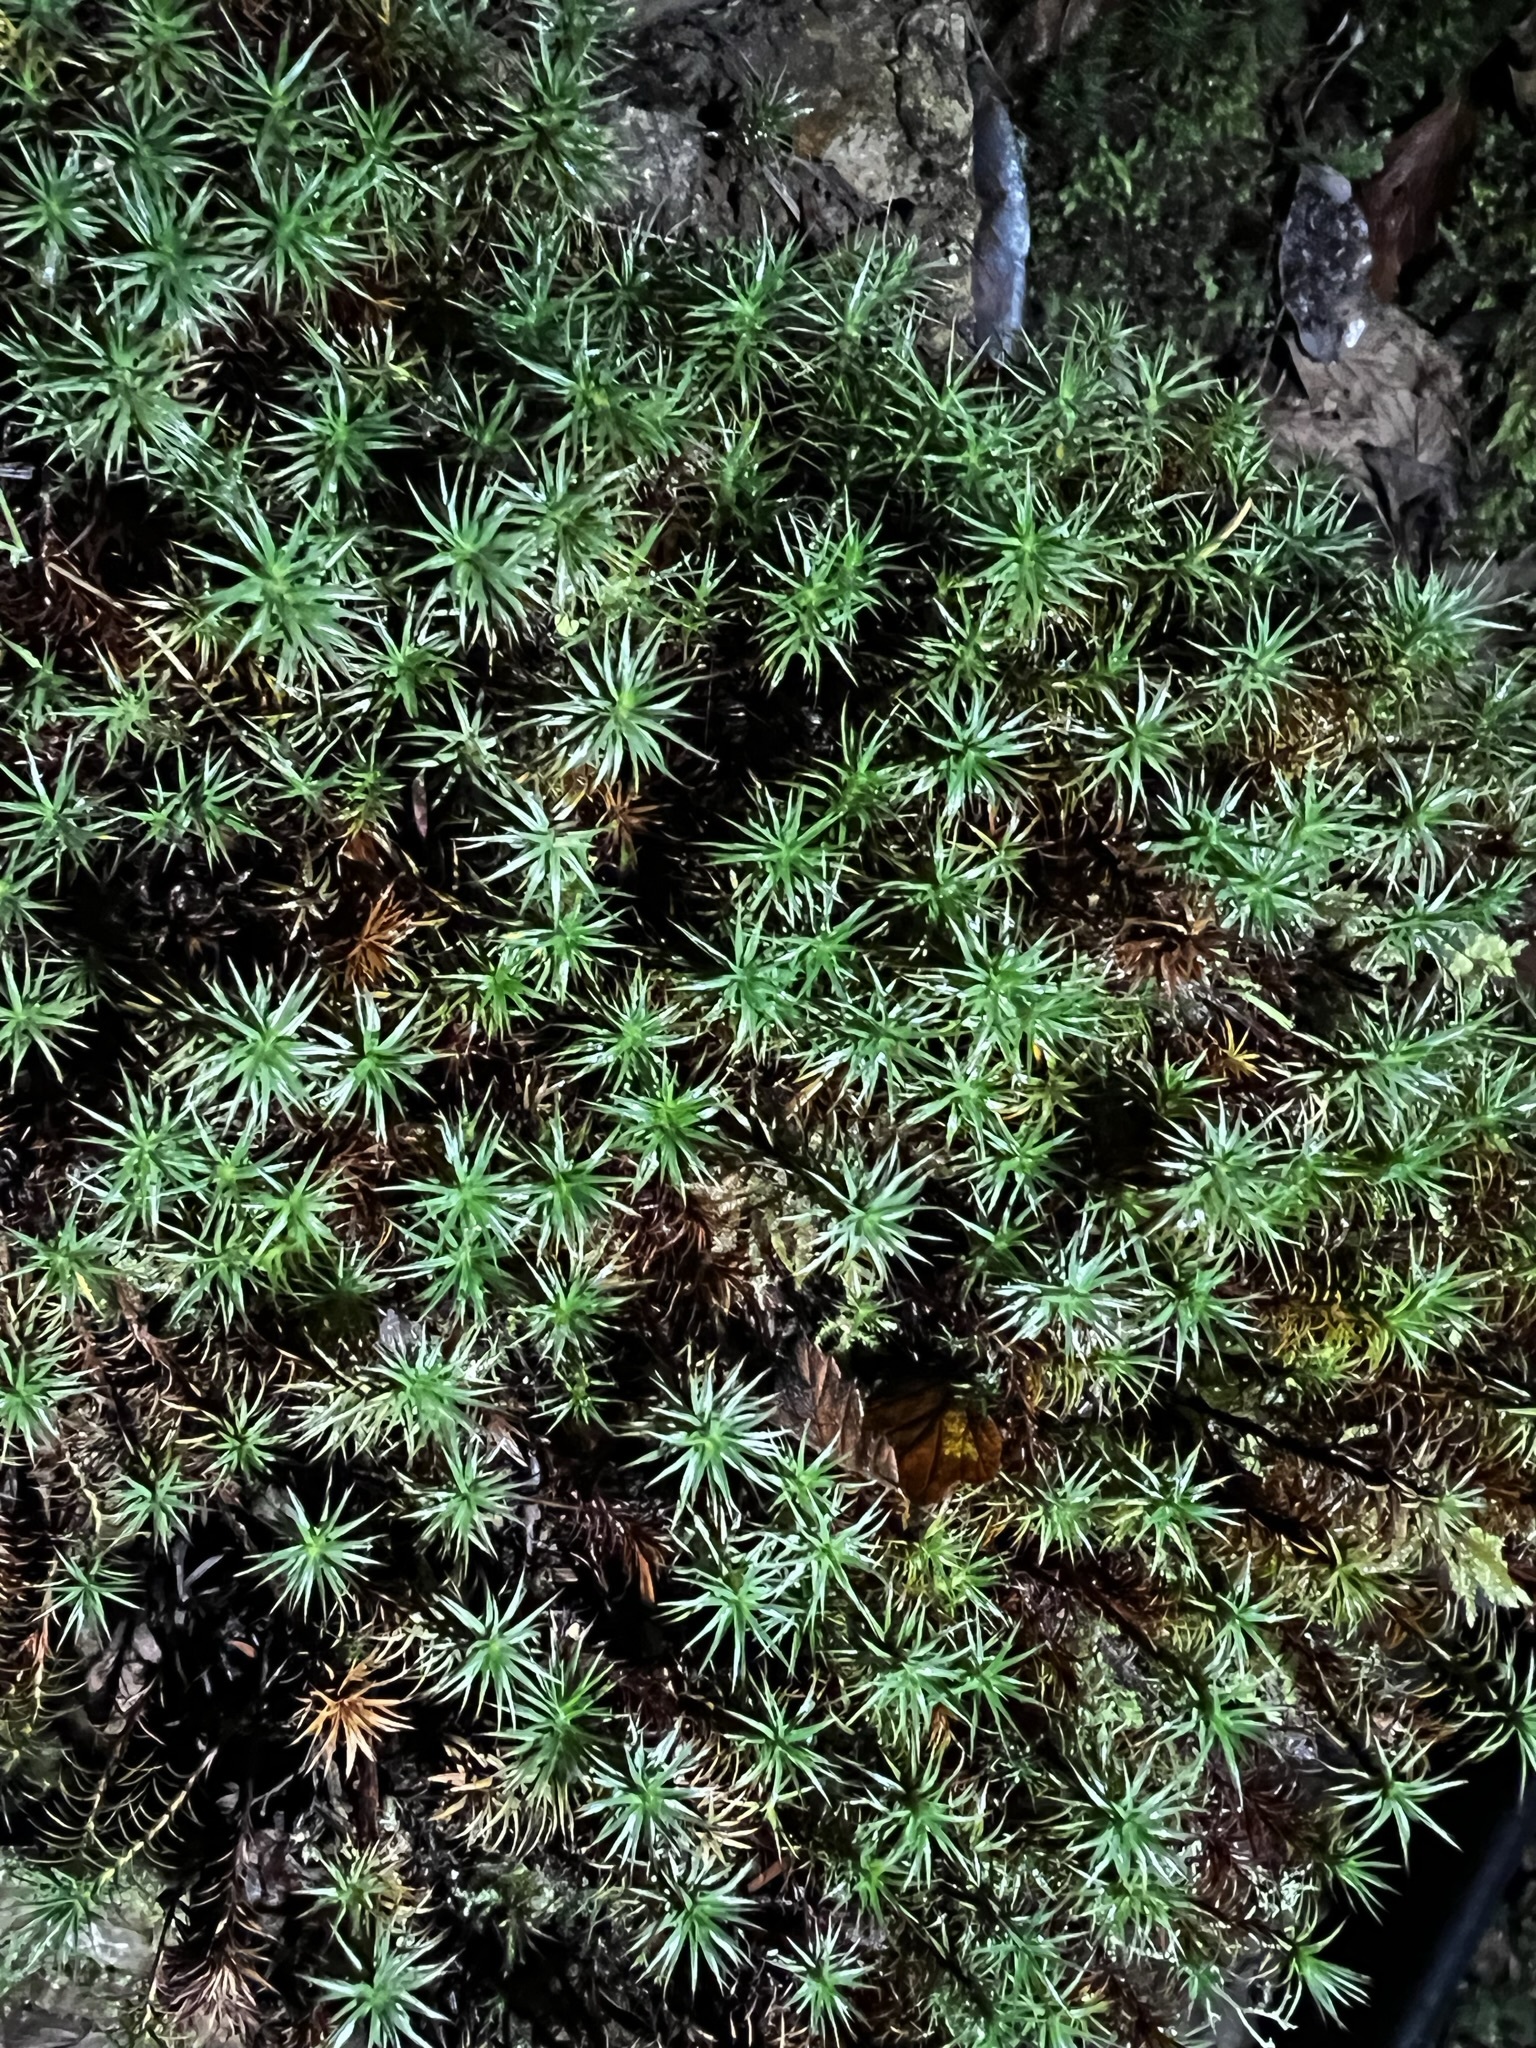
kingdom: Plantae
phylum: Bryophyta
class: Polytrichopsida
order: Polytrichales
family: Polytrichaceae
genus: Polytrichum
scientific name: Polytrichum juniperinum
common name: Juniper haircap moss
